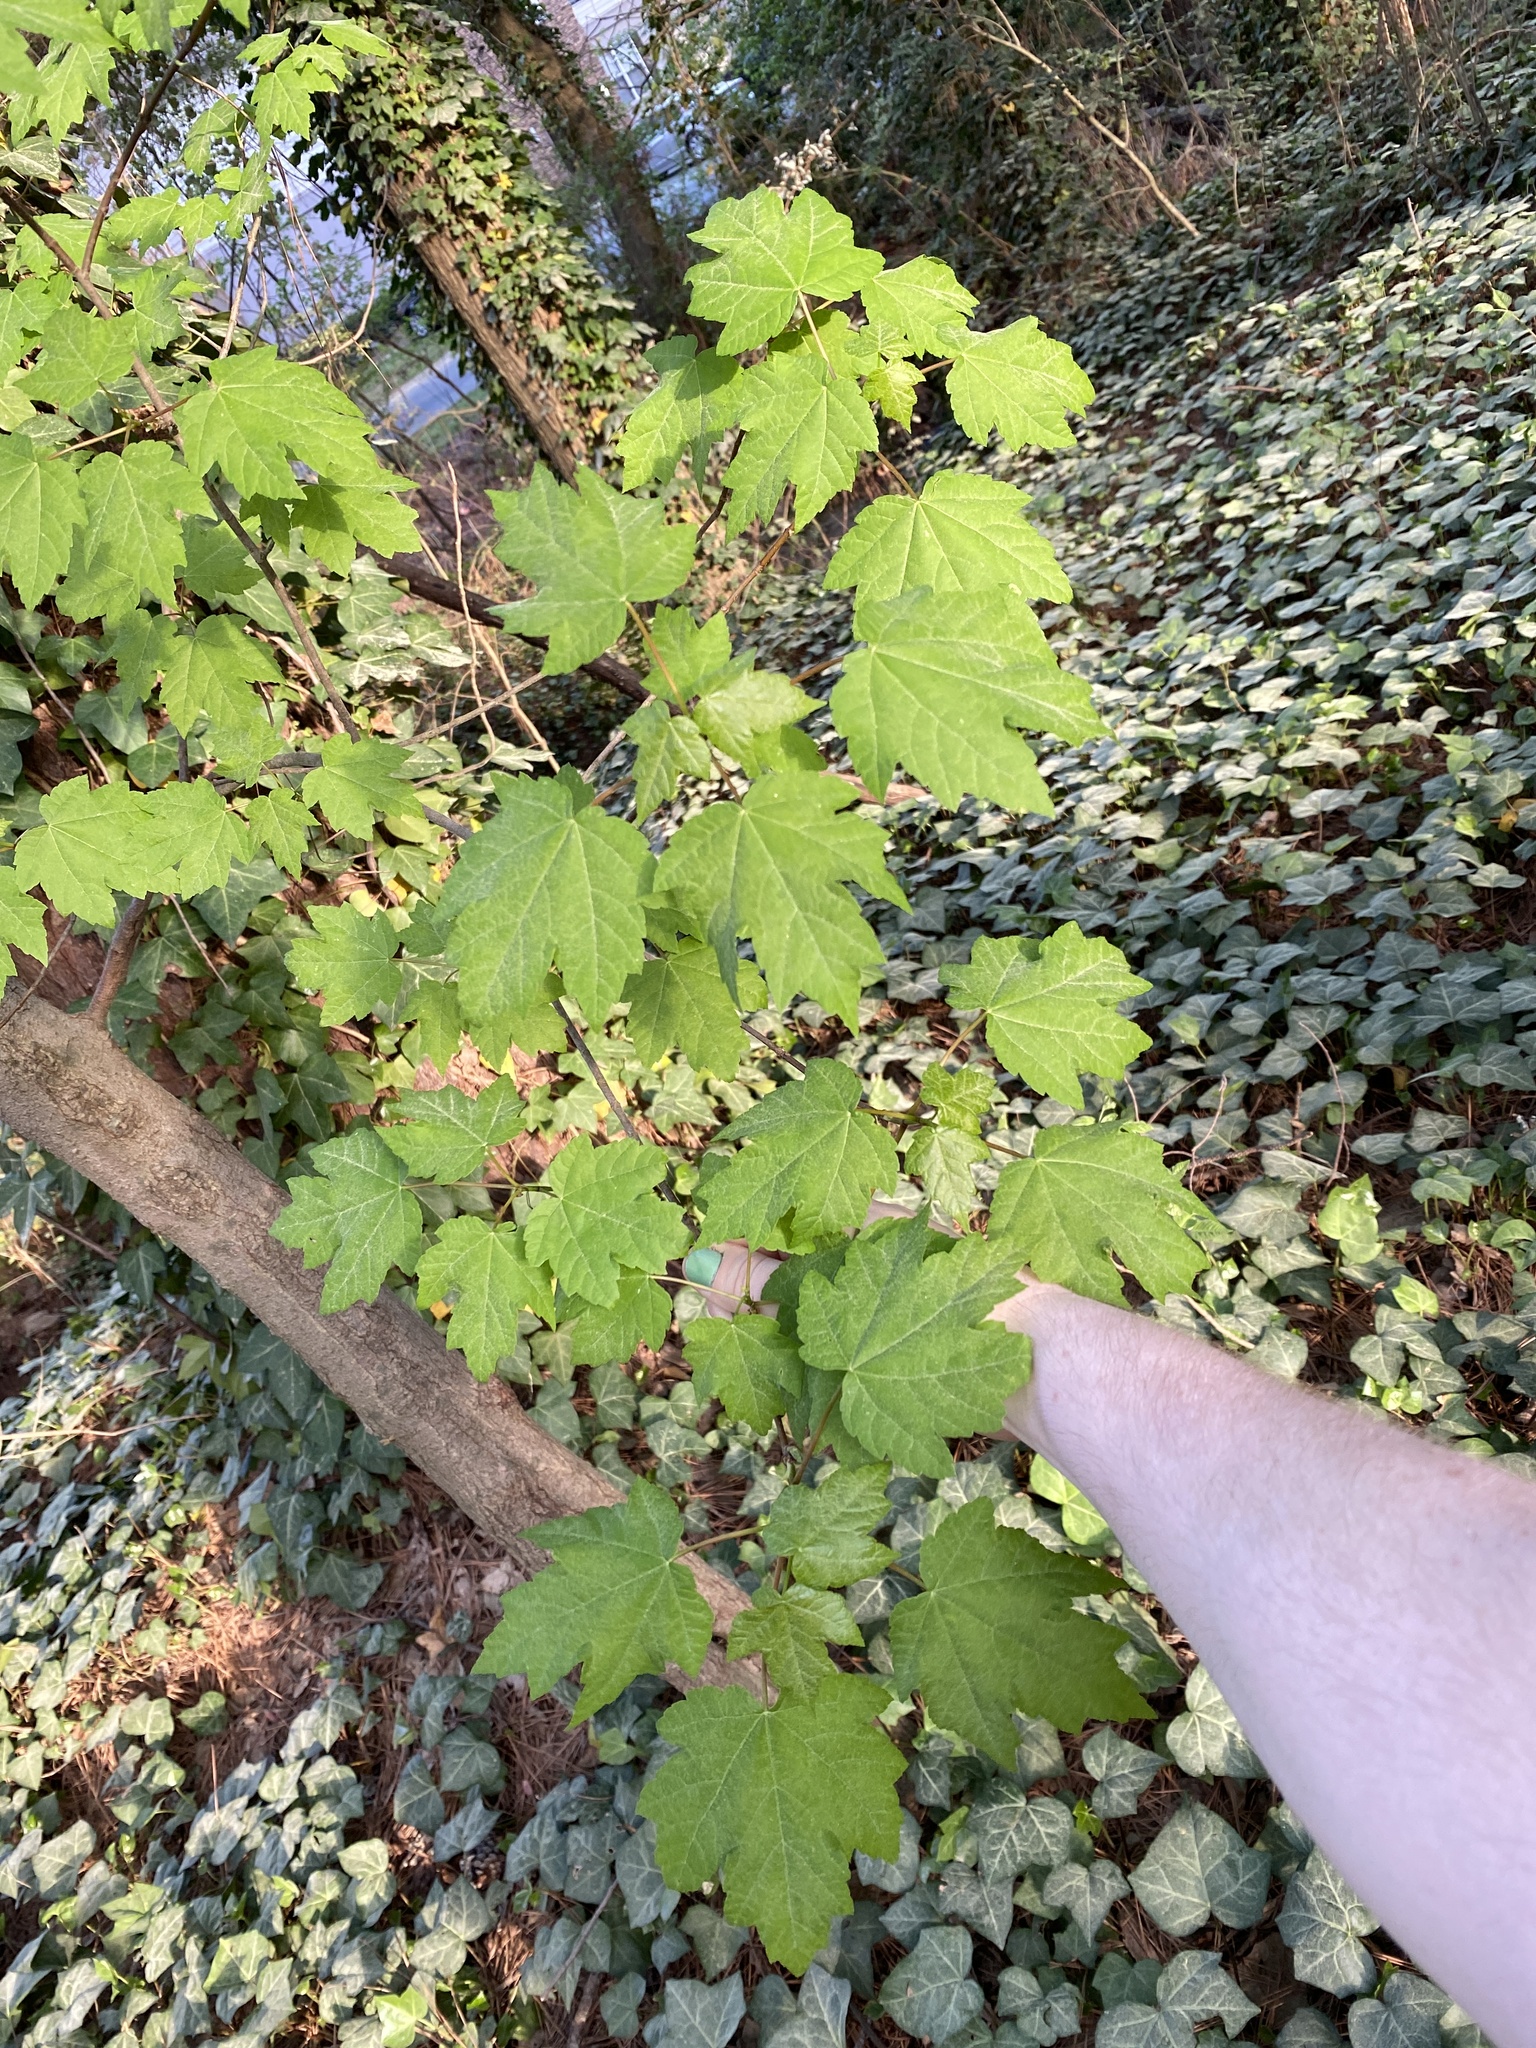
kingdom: Plantae
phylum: Tracheophyta
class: Magnoliopsida
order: Sapindales
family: Sapindaceae
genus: Acer
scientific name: Acer rubrum
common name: Red maple
